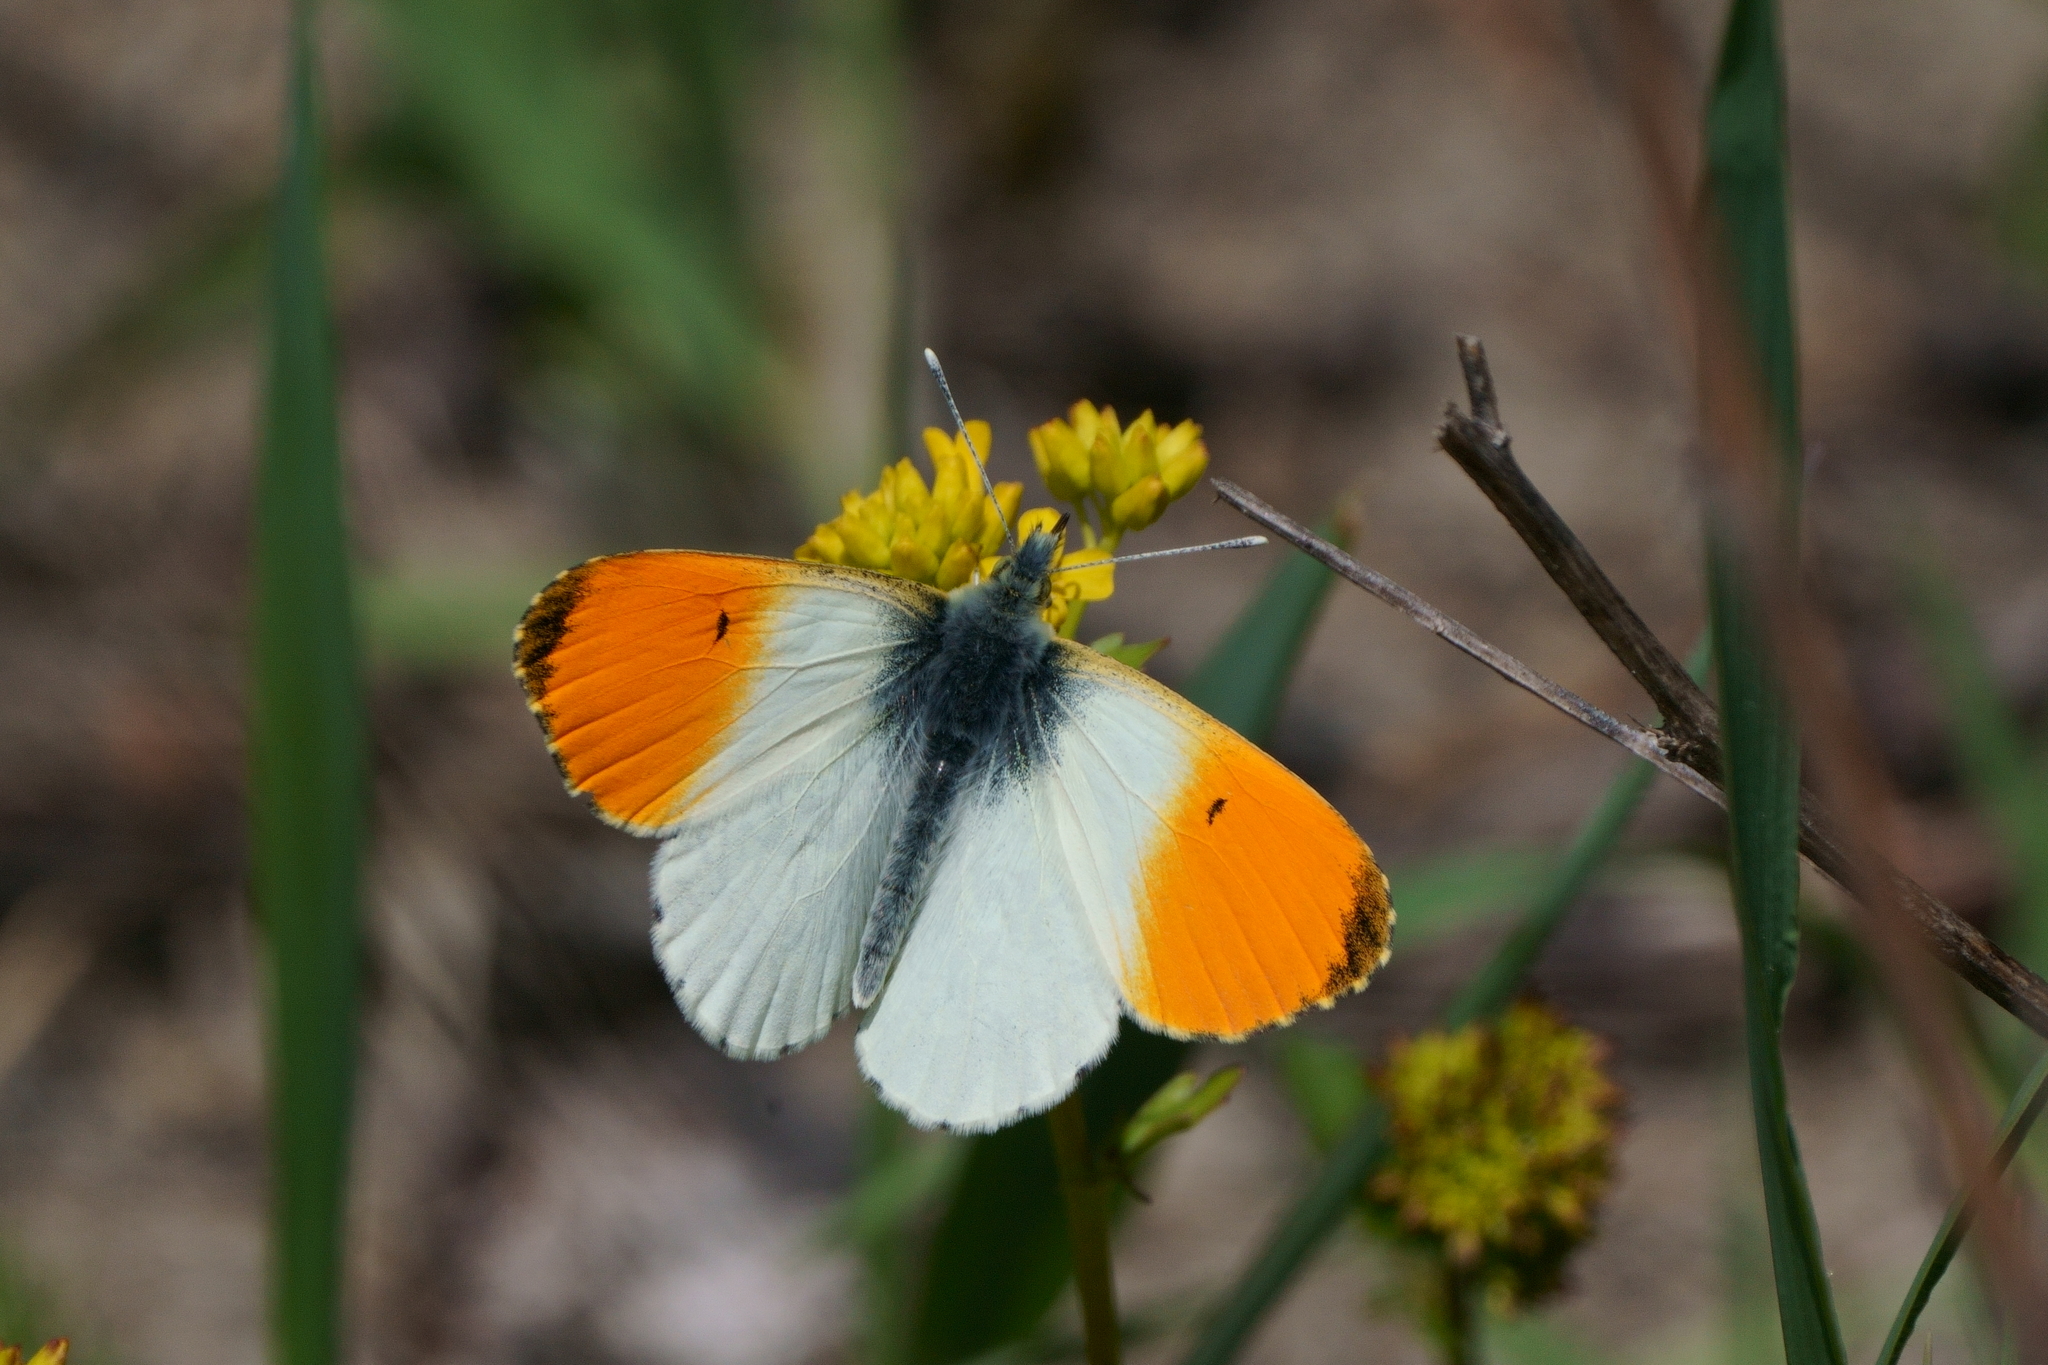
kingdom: Animalia
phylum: Arthropoda
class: Insecta
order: Lepidoptera
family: Pieridae
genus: Anthocharis
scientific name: Anthocharis cardamines
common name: Orange-tip
